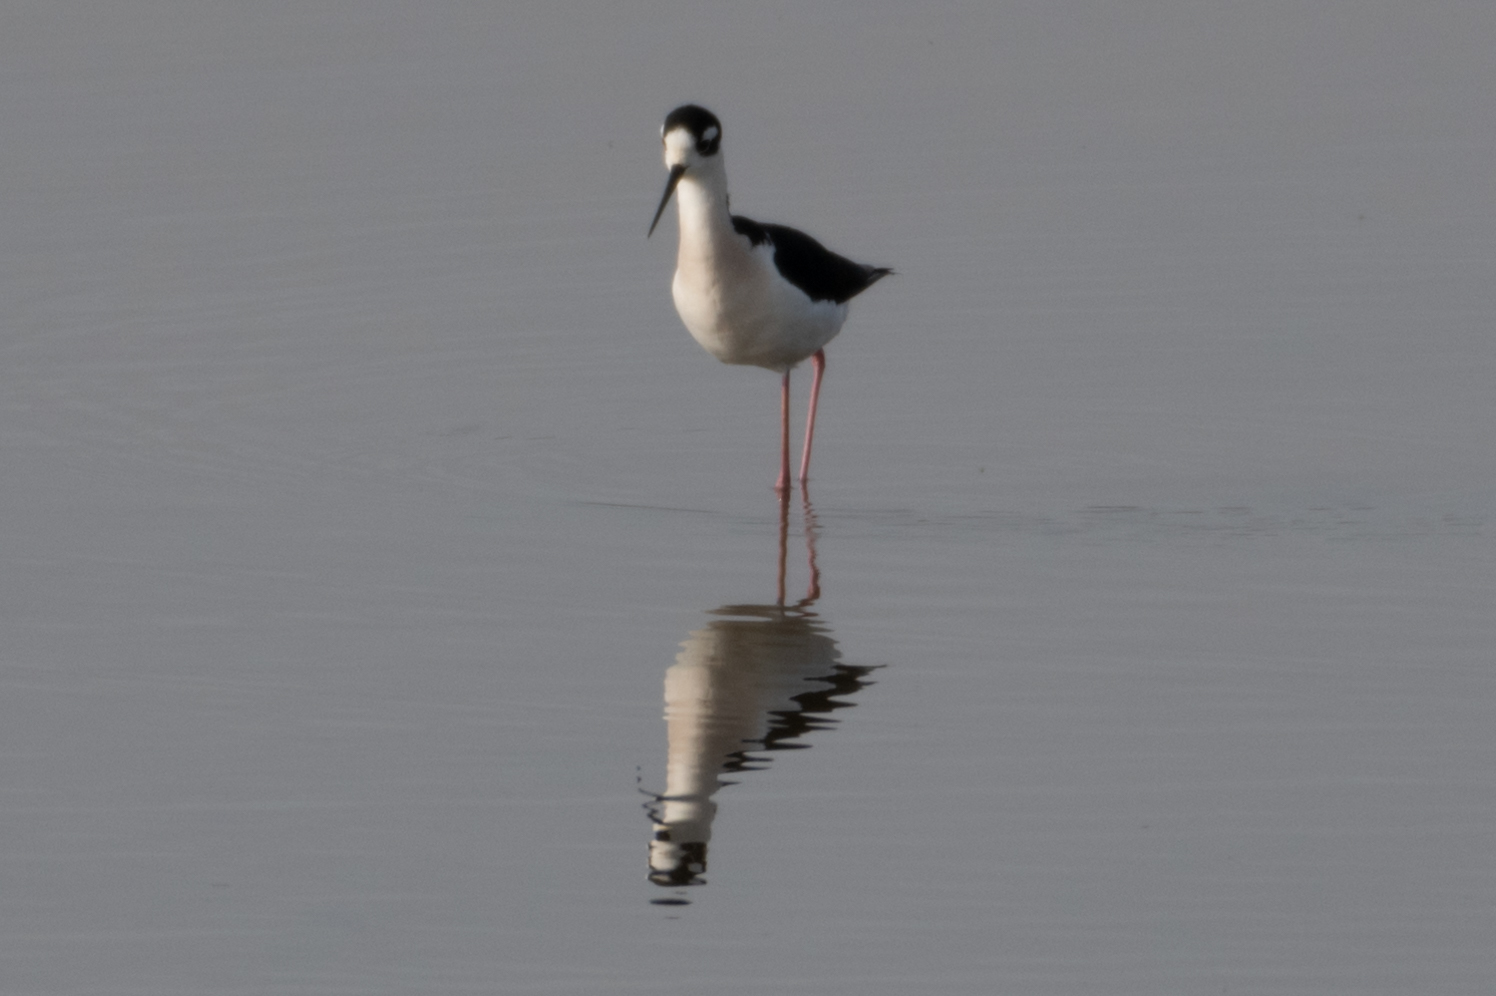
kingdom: Animalia
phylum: Chordata
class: Aves
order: Charadriiformes
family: Recurvirostridae
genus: Himantopus
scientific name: Himantopus mexicanus
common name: Black-necked stilt
